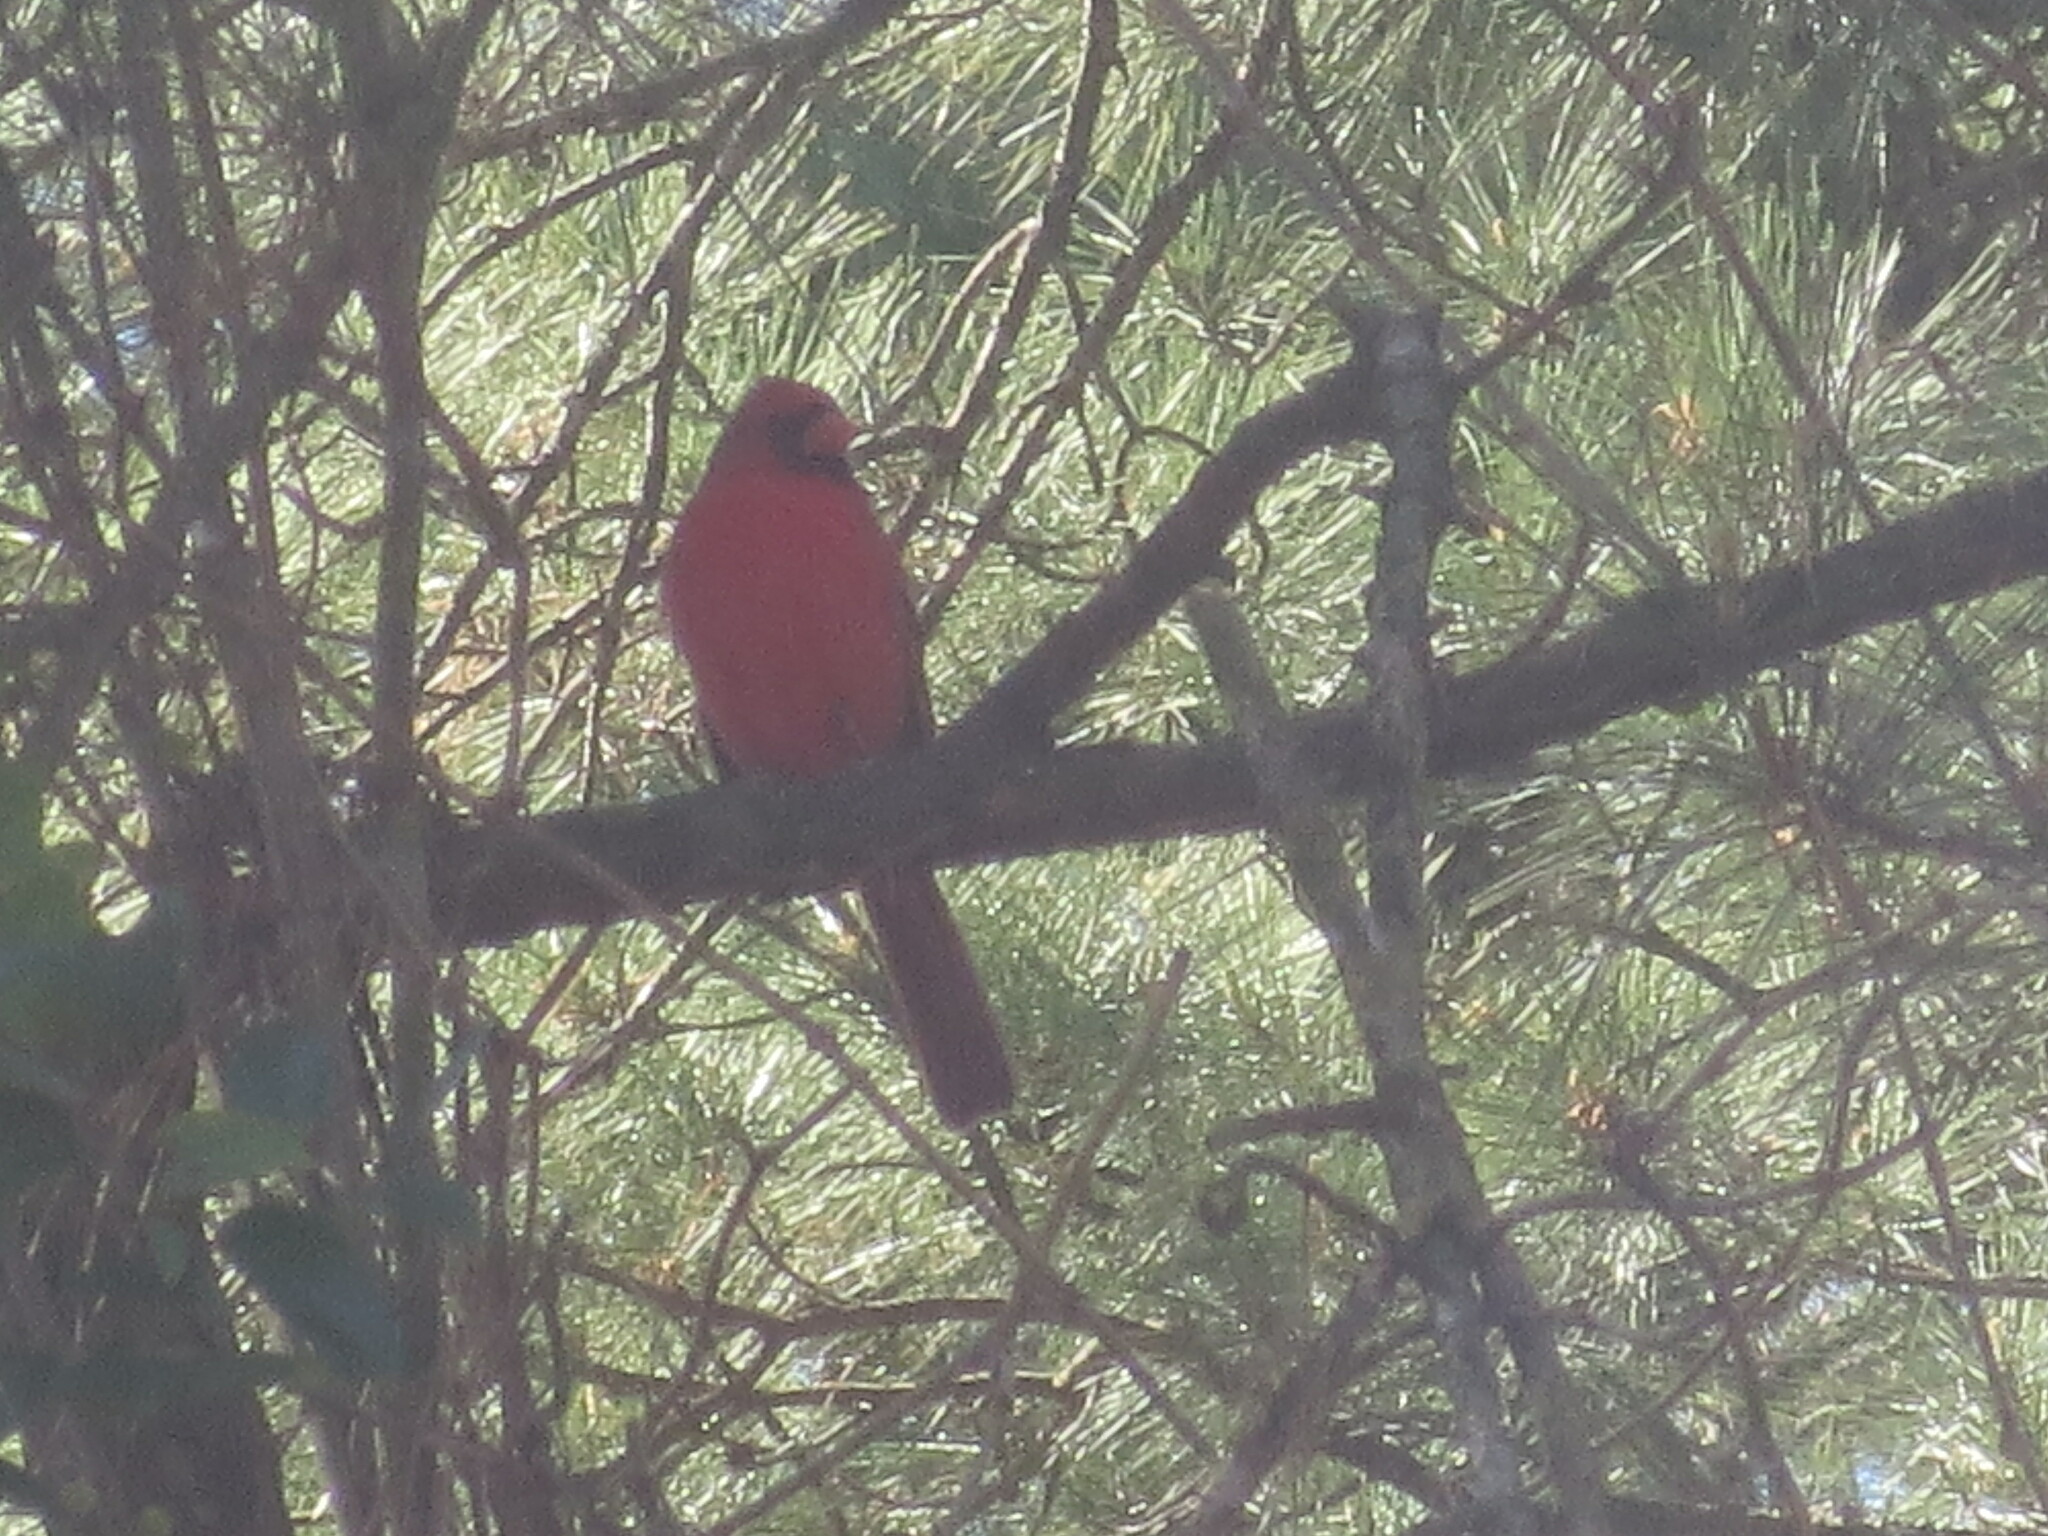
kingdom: Animalia
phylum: Chordata
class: Aves
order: Passeriformes
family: Cardinalidae
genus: Cardinalis
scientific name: Cardinalis cardinalis
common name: Northern cardinal
